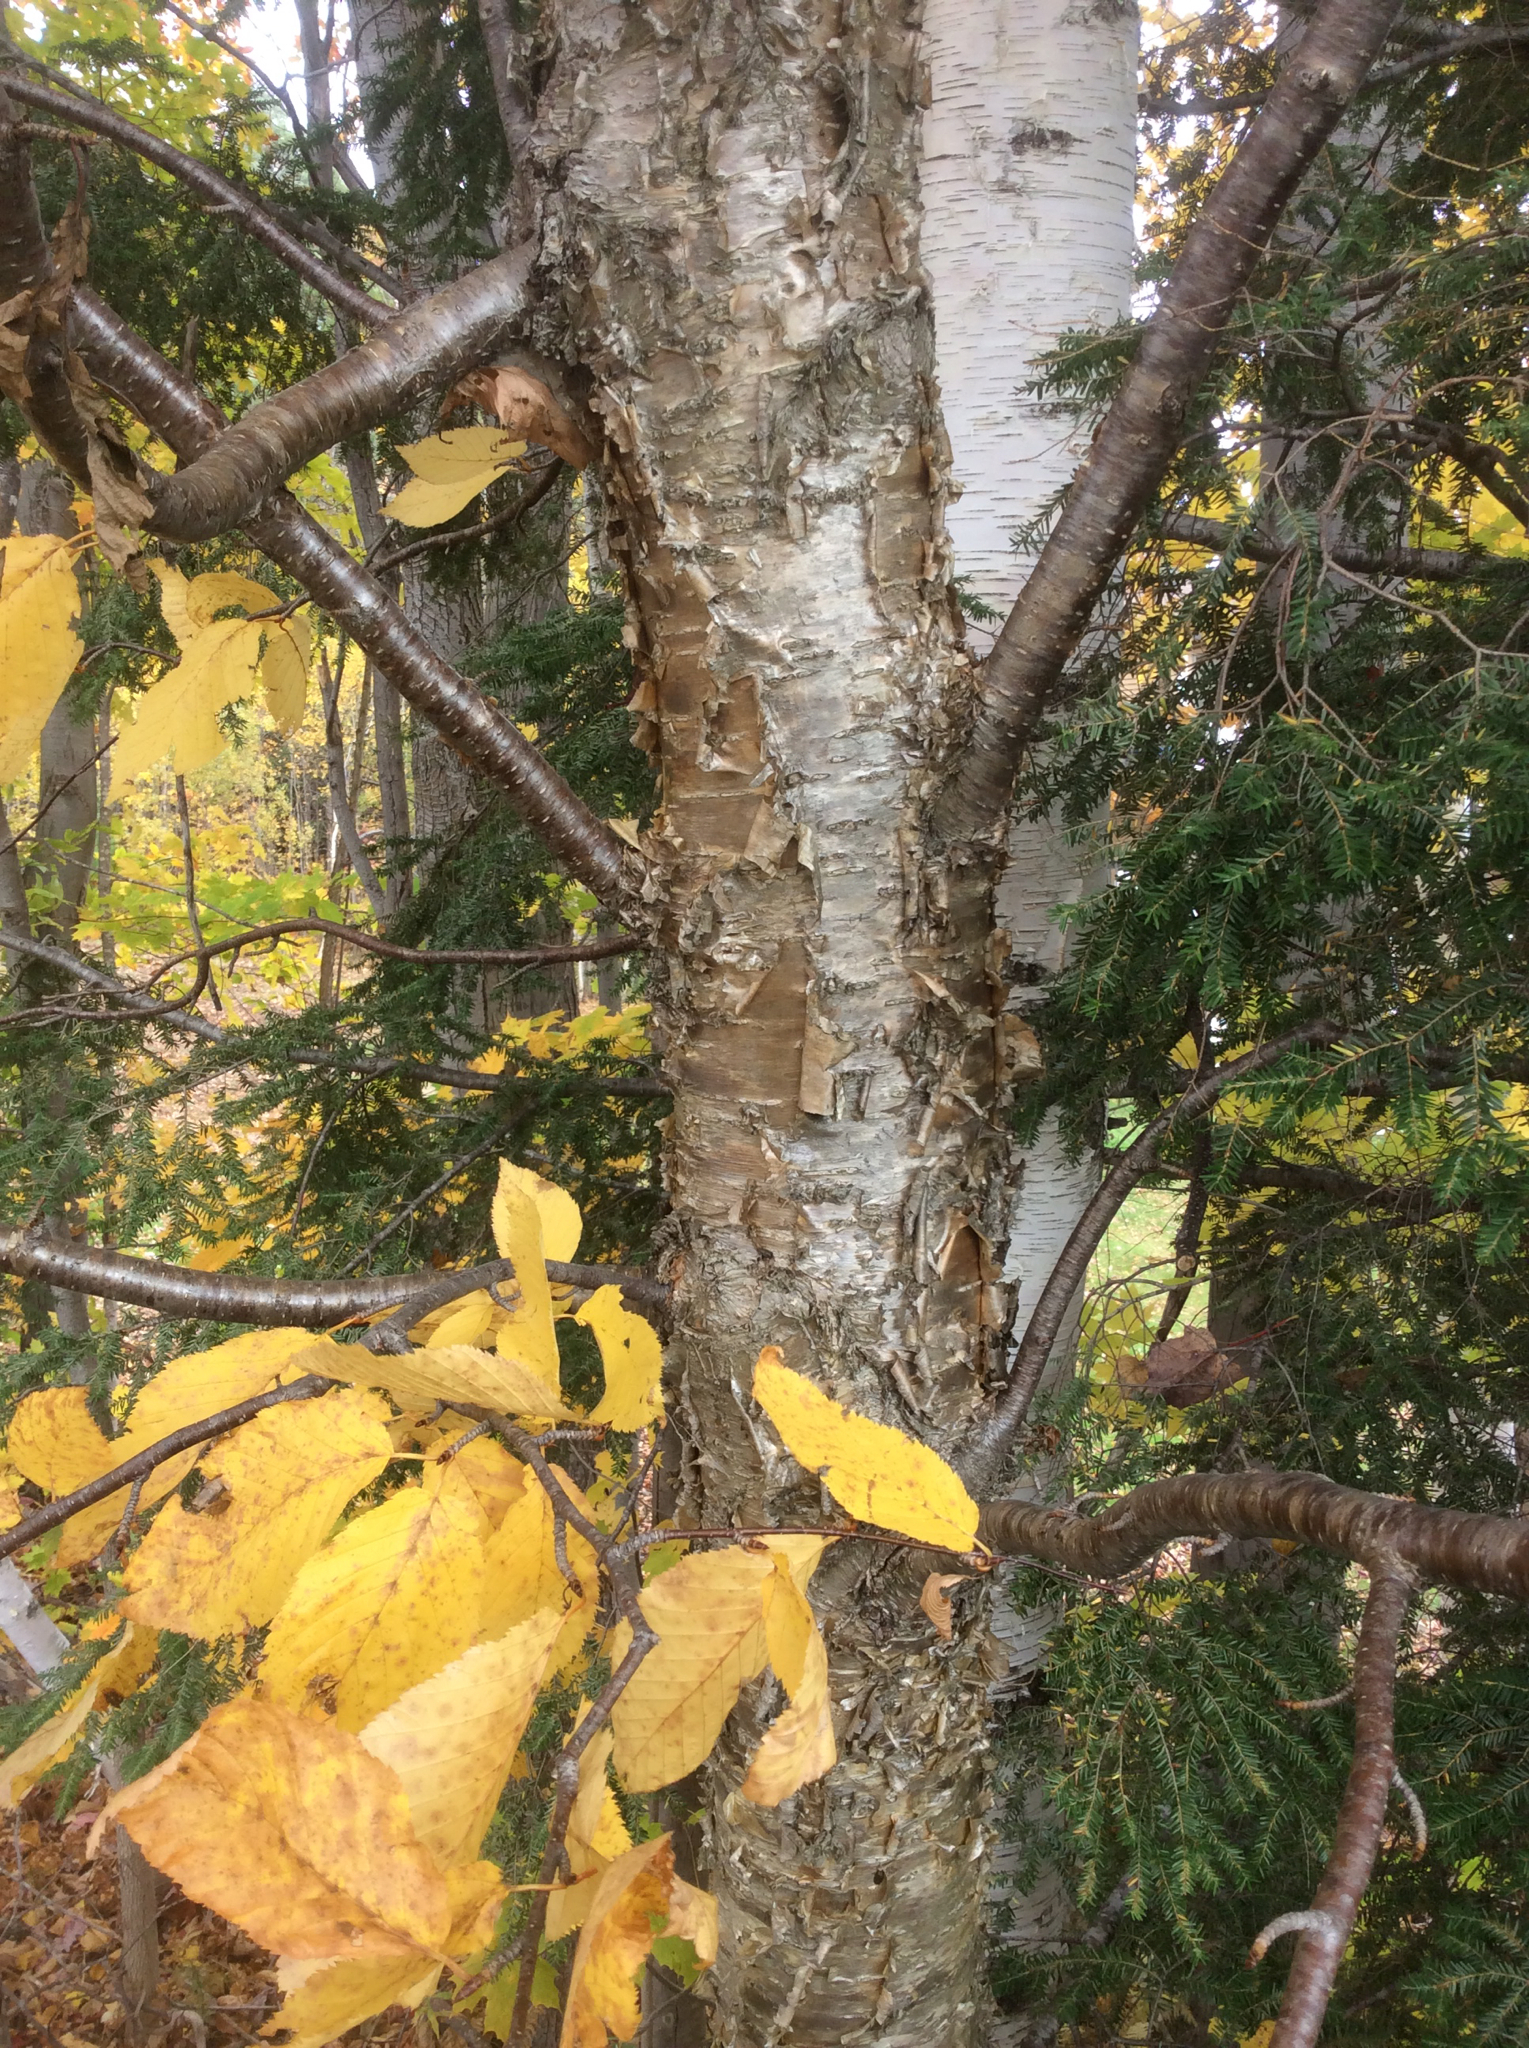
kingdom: Plantae
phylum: Tracheophyta
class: Magnoliopsida
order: Fagales
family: Betulaceae
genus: Betula
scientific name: Betula alleghaniensis
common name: Yellow birch
